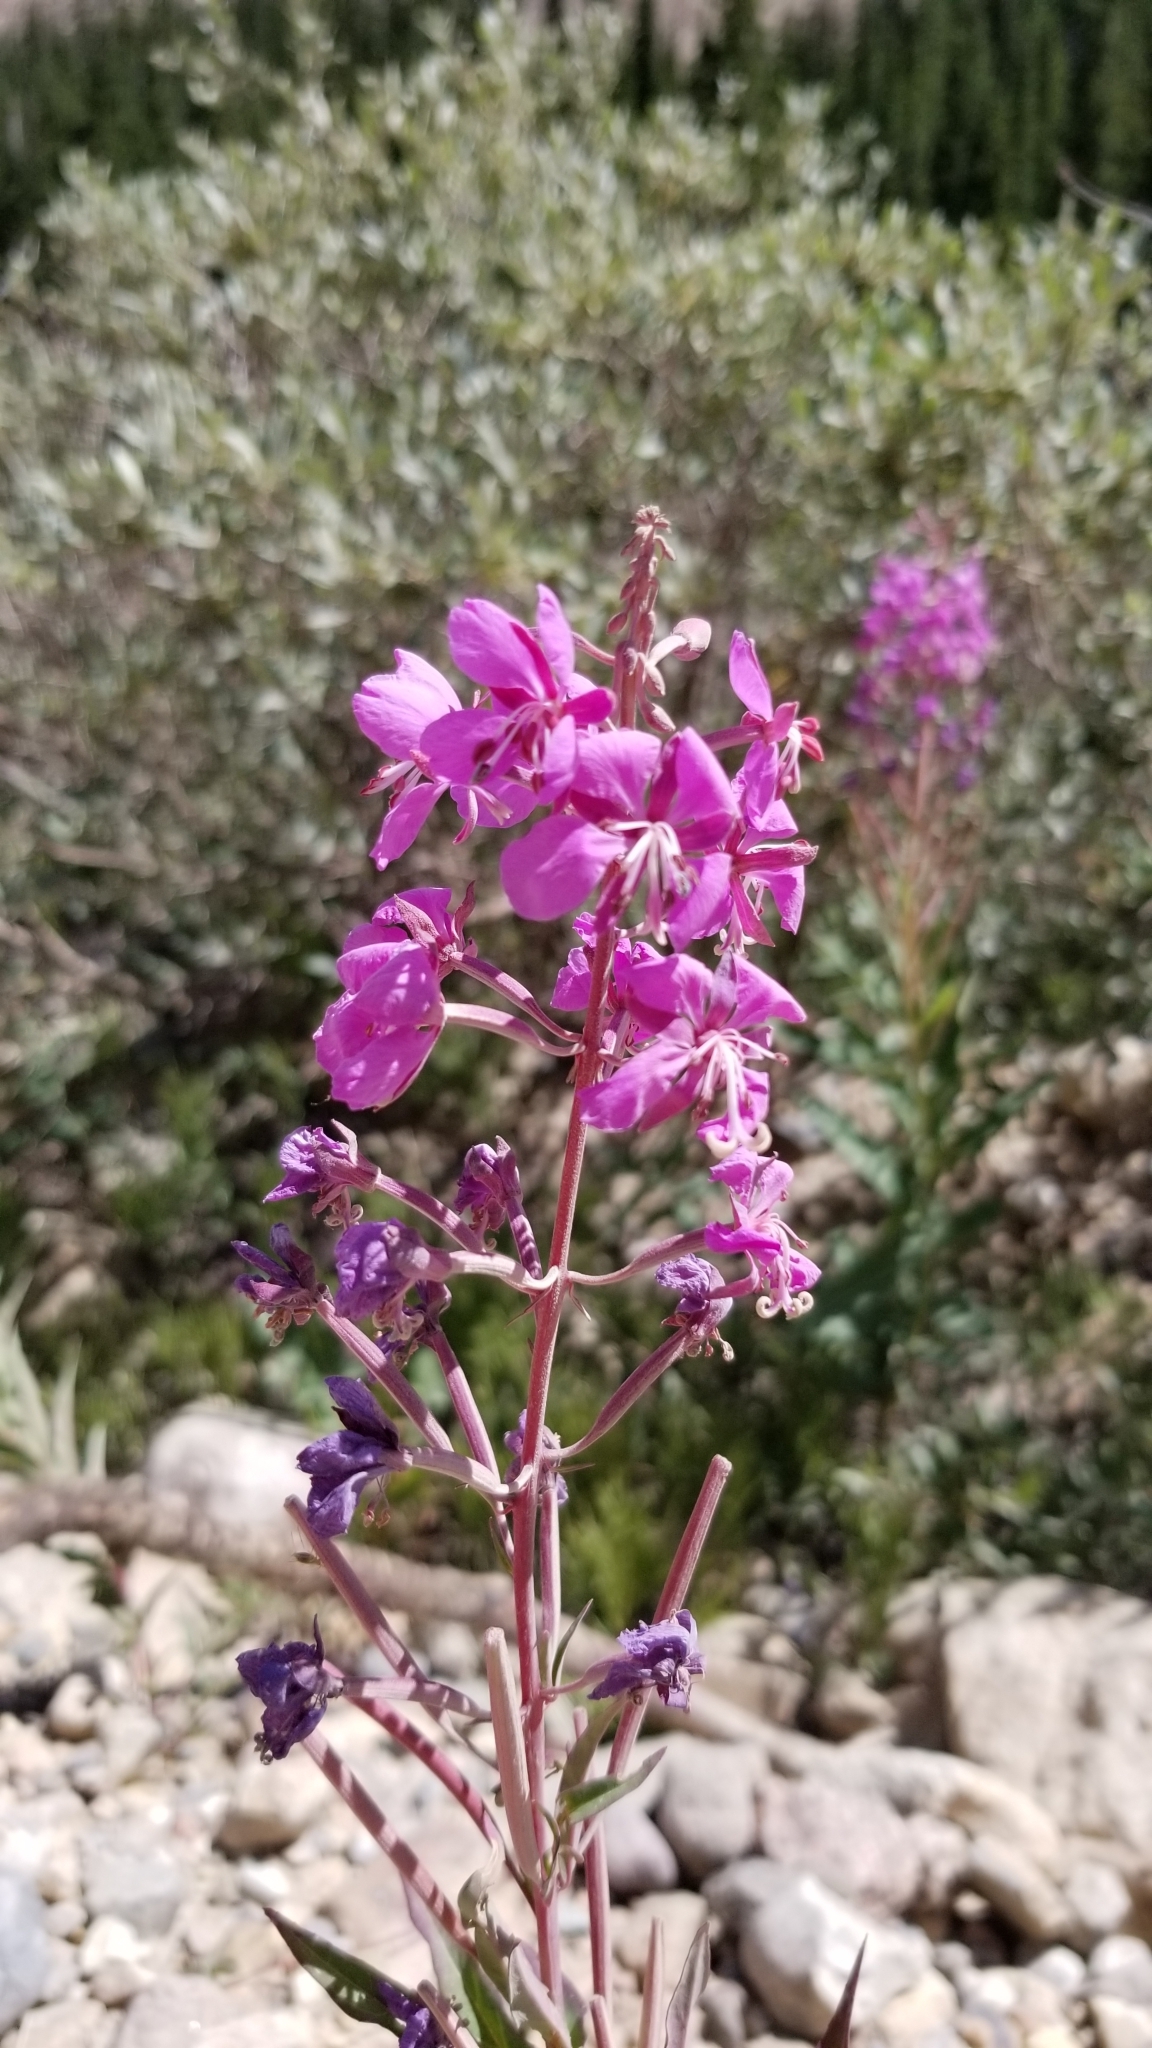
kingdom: Plantae
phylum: Tracheophyta
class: Magnoliopsida
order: Myrtales
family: Onagraceae
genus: Chamaenerion
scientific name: Chamaenerion angustifolium
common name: Fireweed
